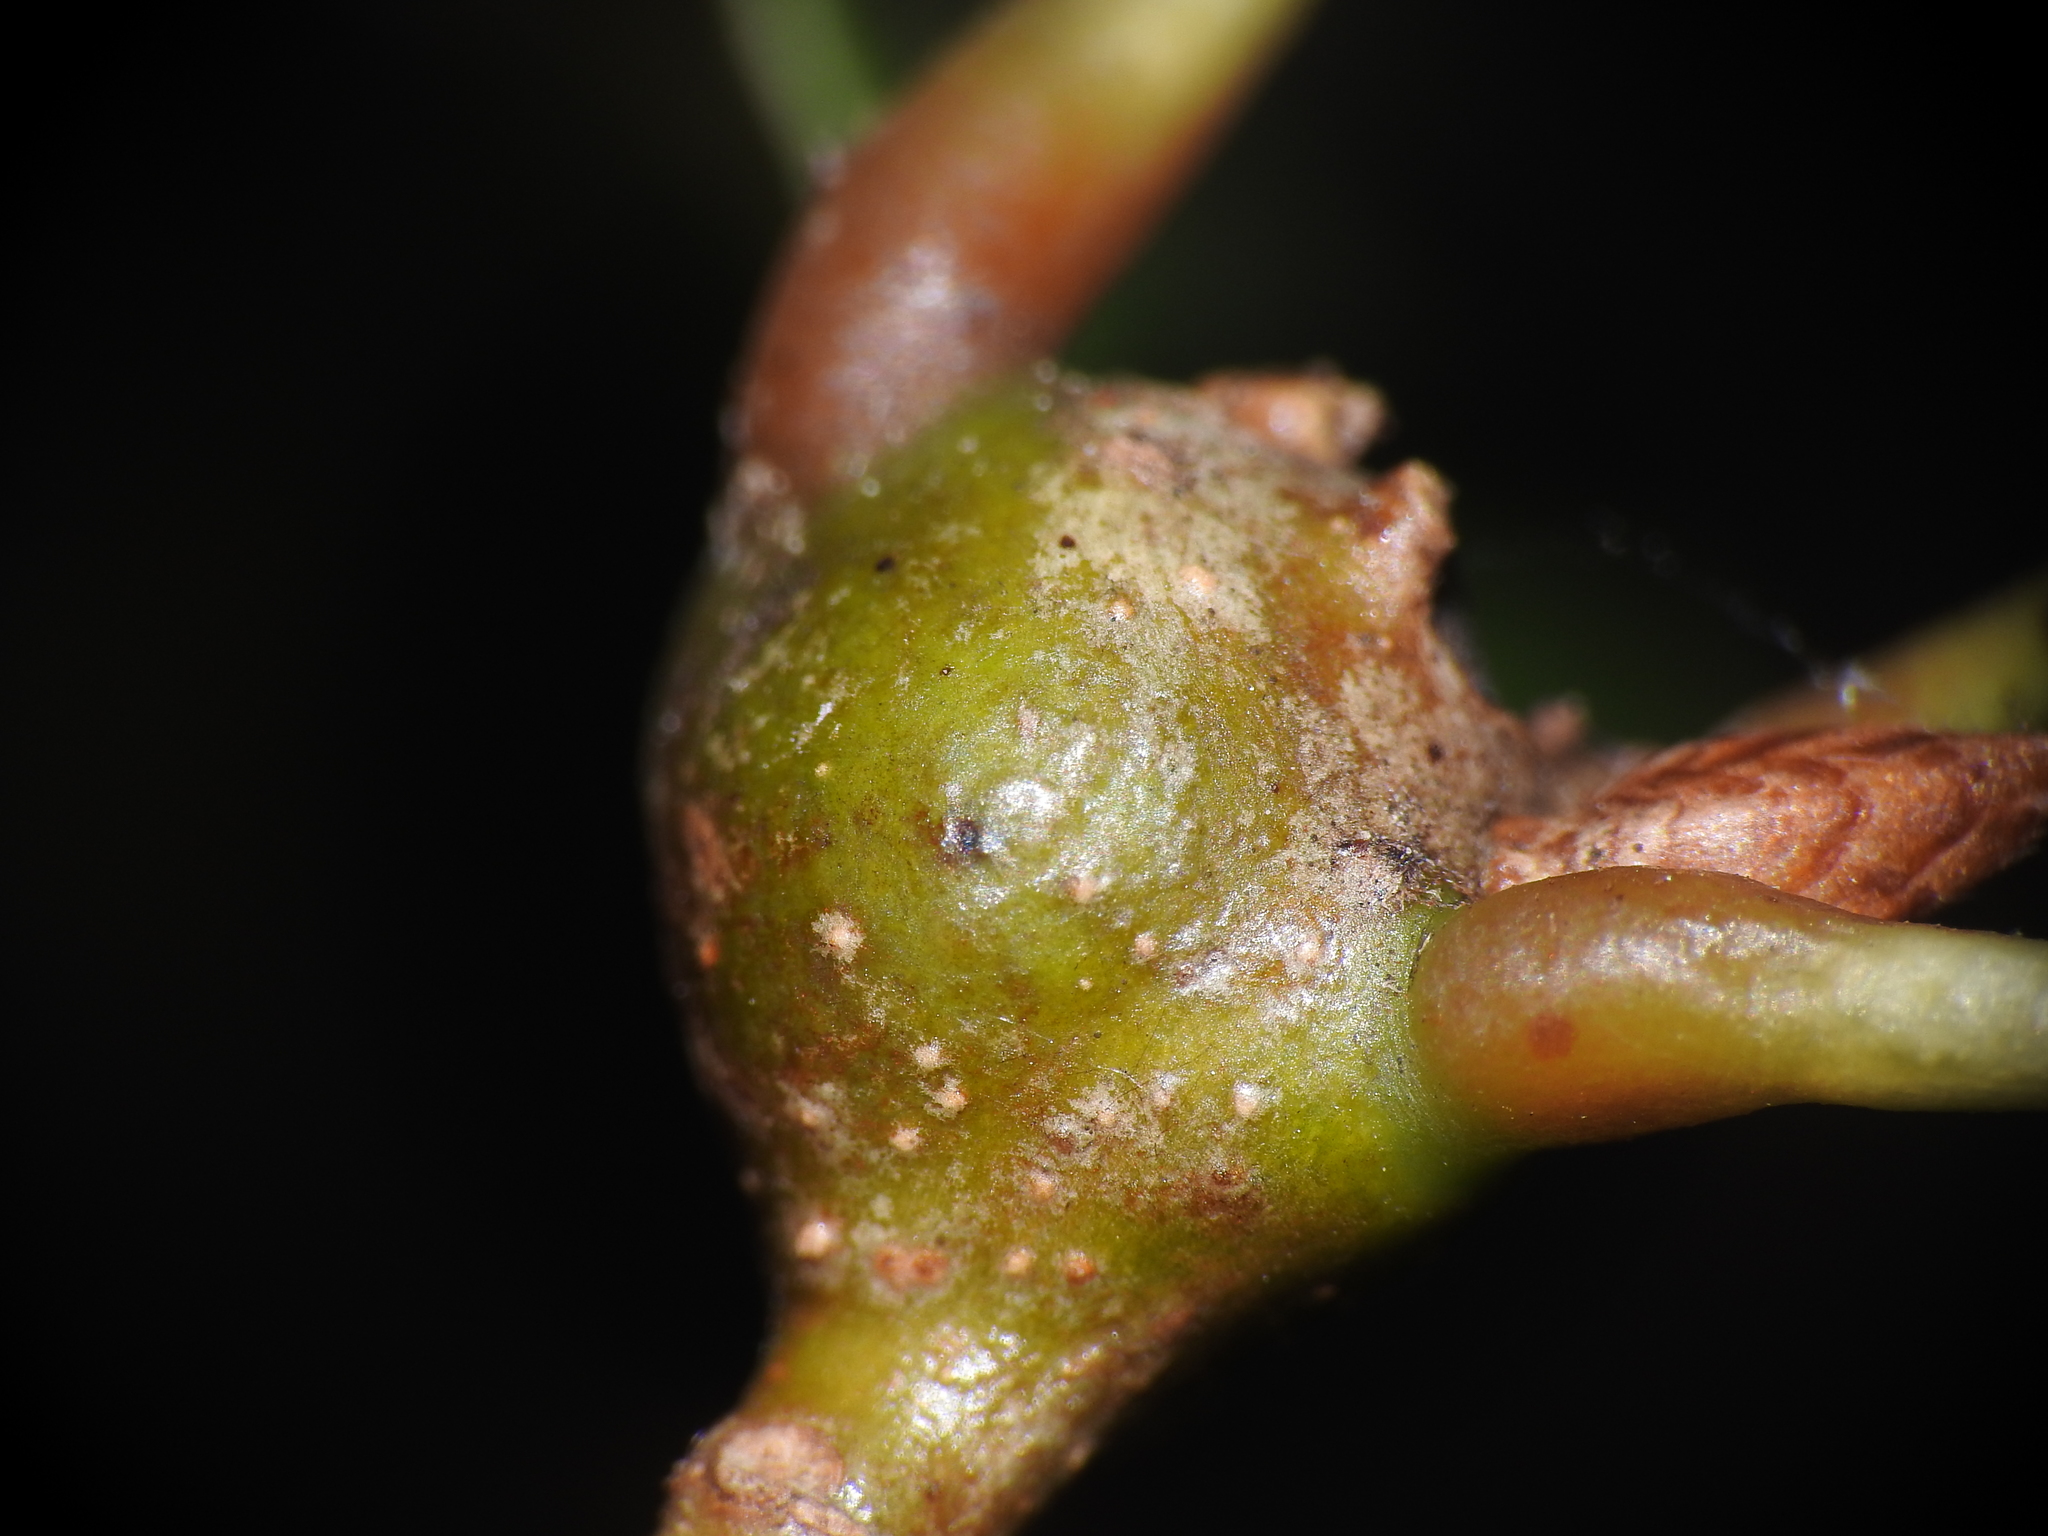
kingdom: Animalia
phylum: Arthropoda
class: Insecta
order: Hymenoptera
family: Cynipidae
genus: Zapatella
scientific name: Zapatella quercusphellos
